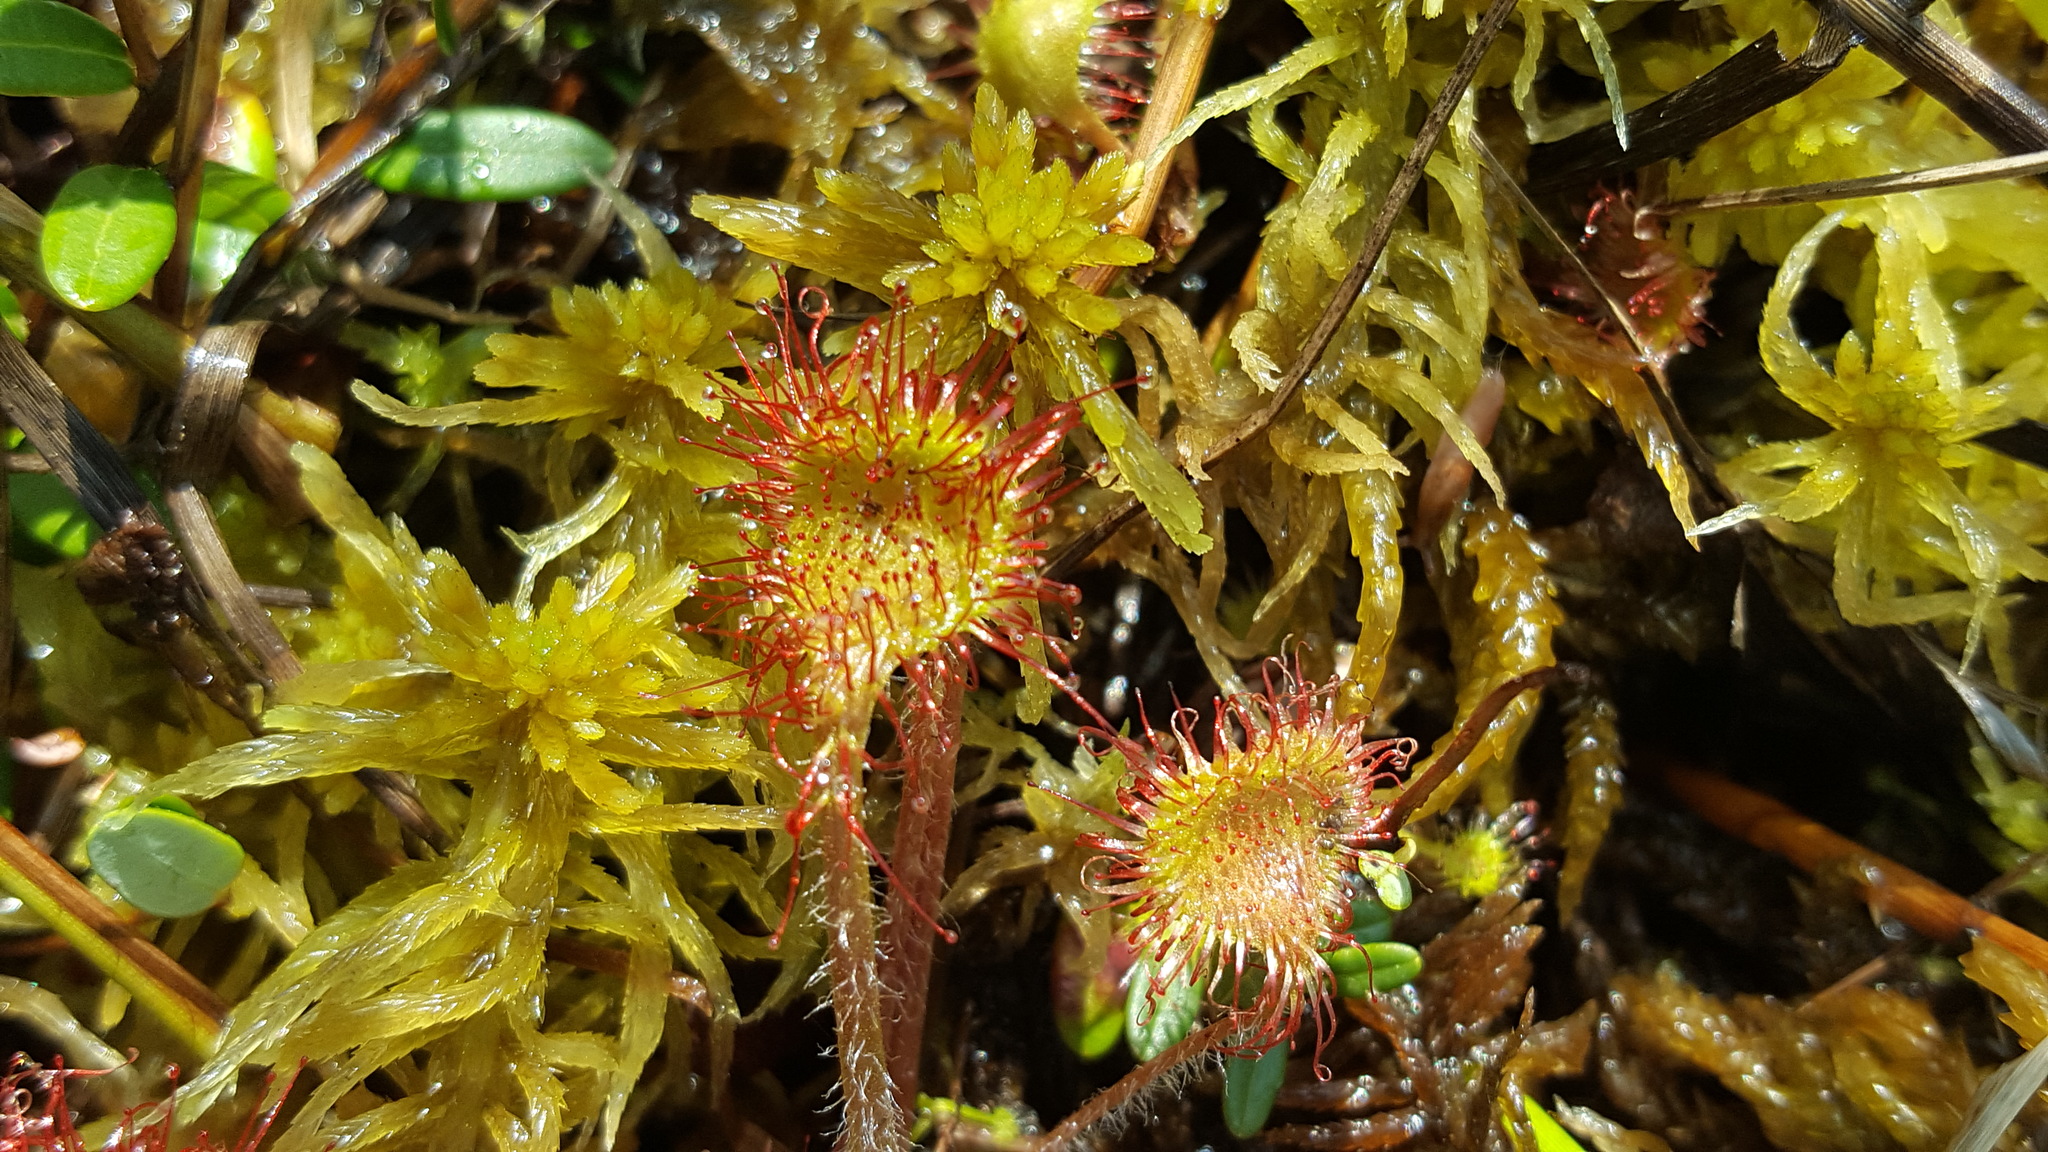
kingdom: Plantae
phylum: Tracheophyta
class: Magnoliopsida
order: Caryophyllales
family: Droseraceae
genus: Drosera
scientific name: Drosera rotundifolia
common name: Round-leaved sundew
